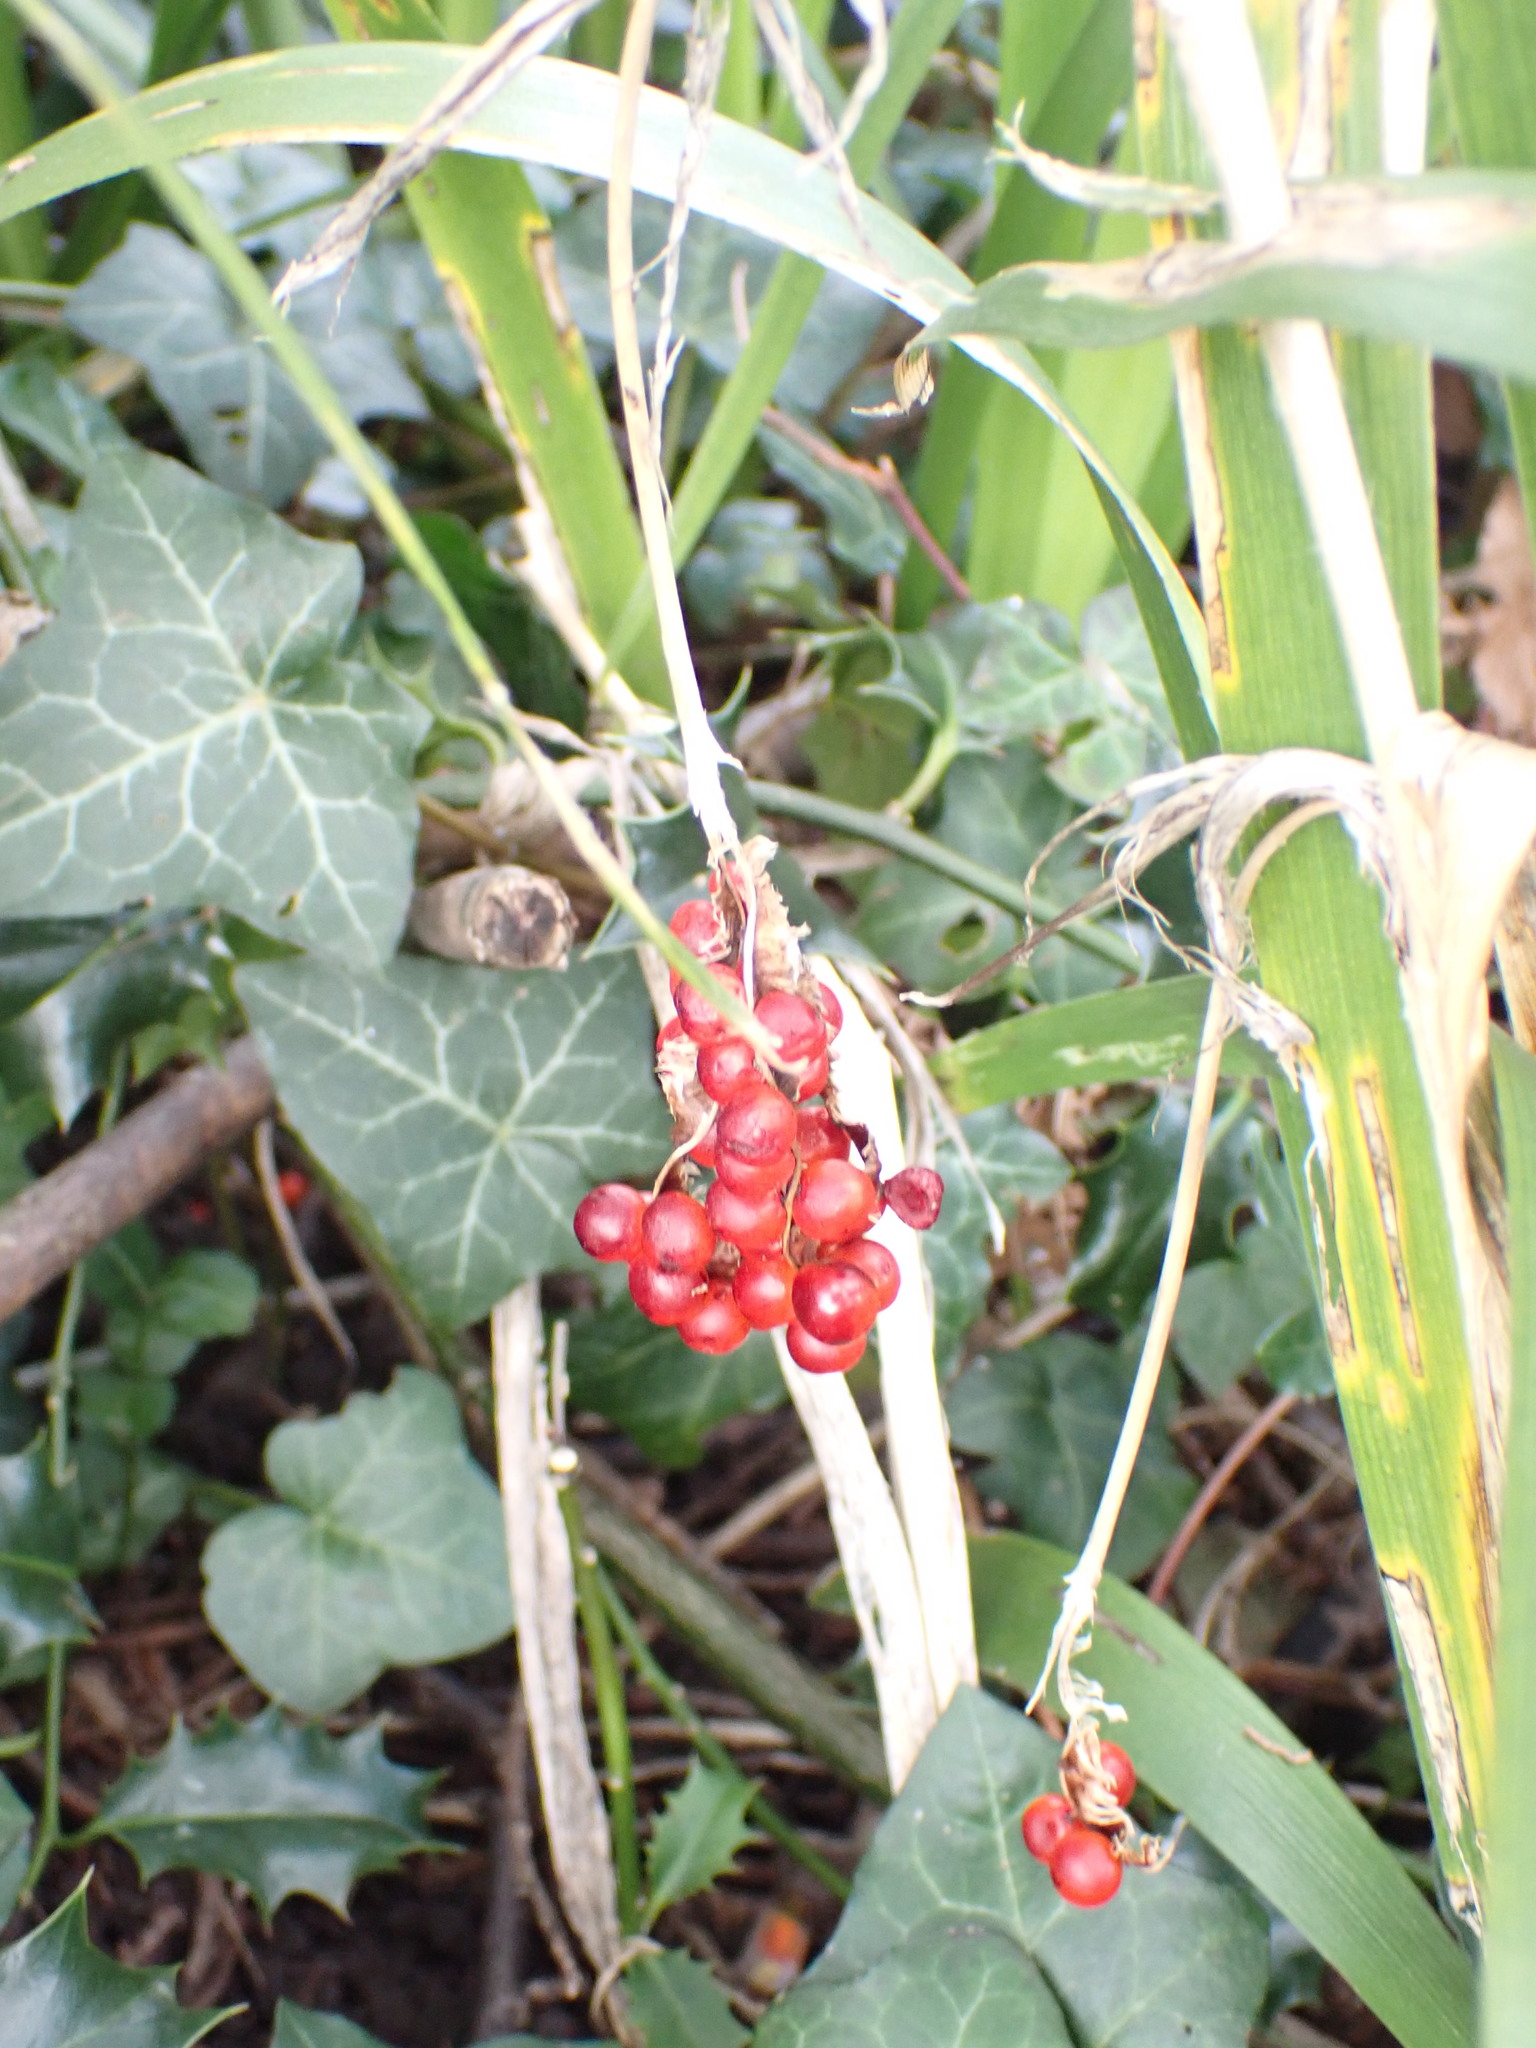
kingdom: Plantae
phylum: Tracheophyta
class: Liliopsida
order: Asparagales
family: Iridaceae
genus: Iris
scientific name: Iris foetidissima
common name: Stinking iris
